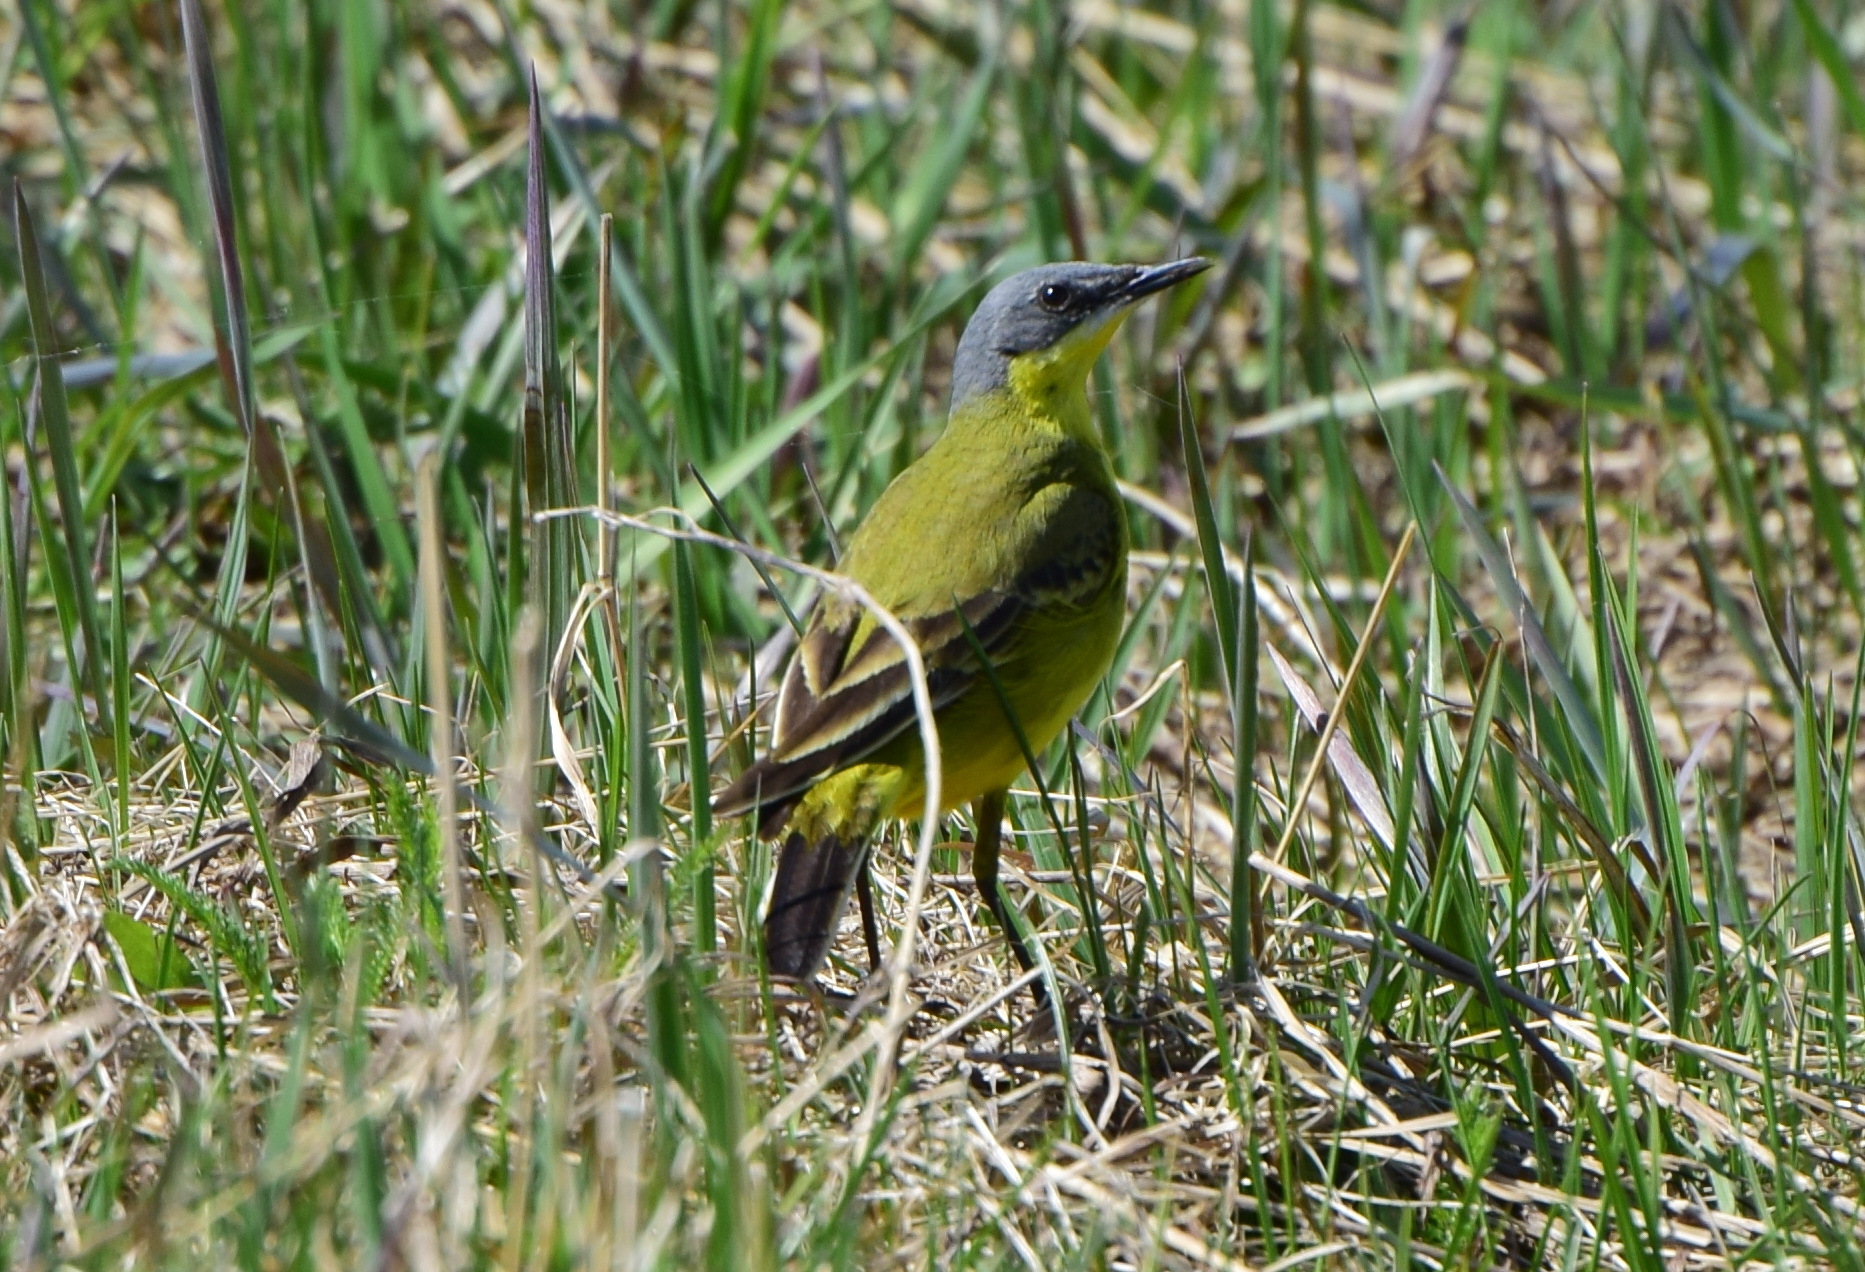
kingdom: Animalia
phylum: Chordata
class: Aves
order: Passeriformes
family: Motacillidae
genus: Motacilla
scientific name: Motacilla flava
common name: Western yellow wagtail
